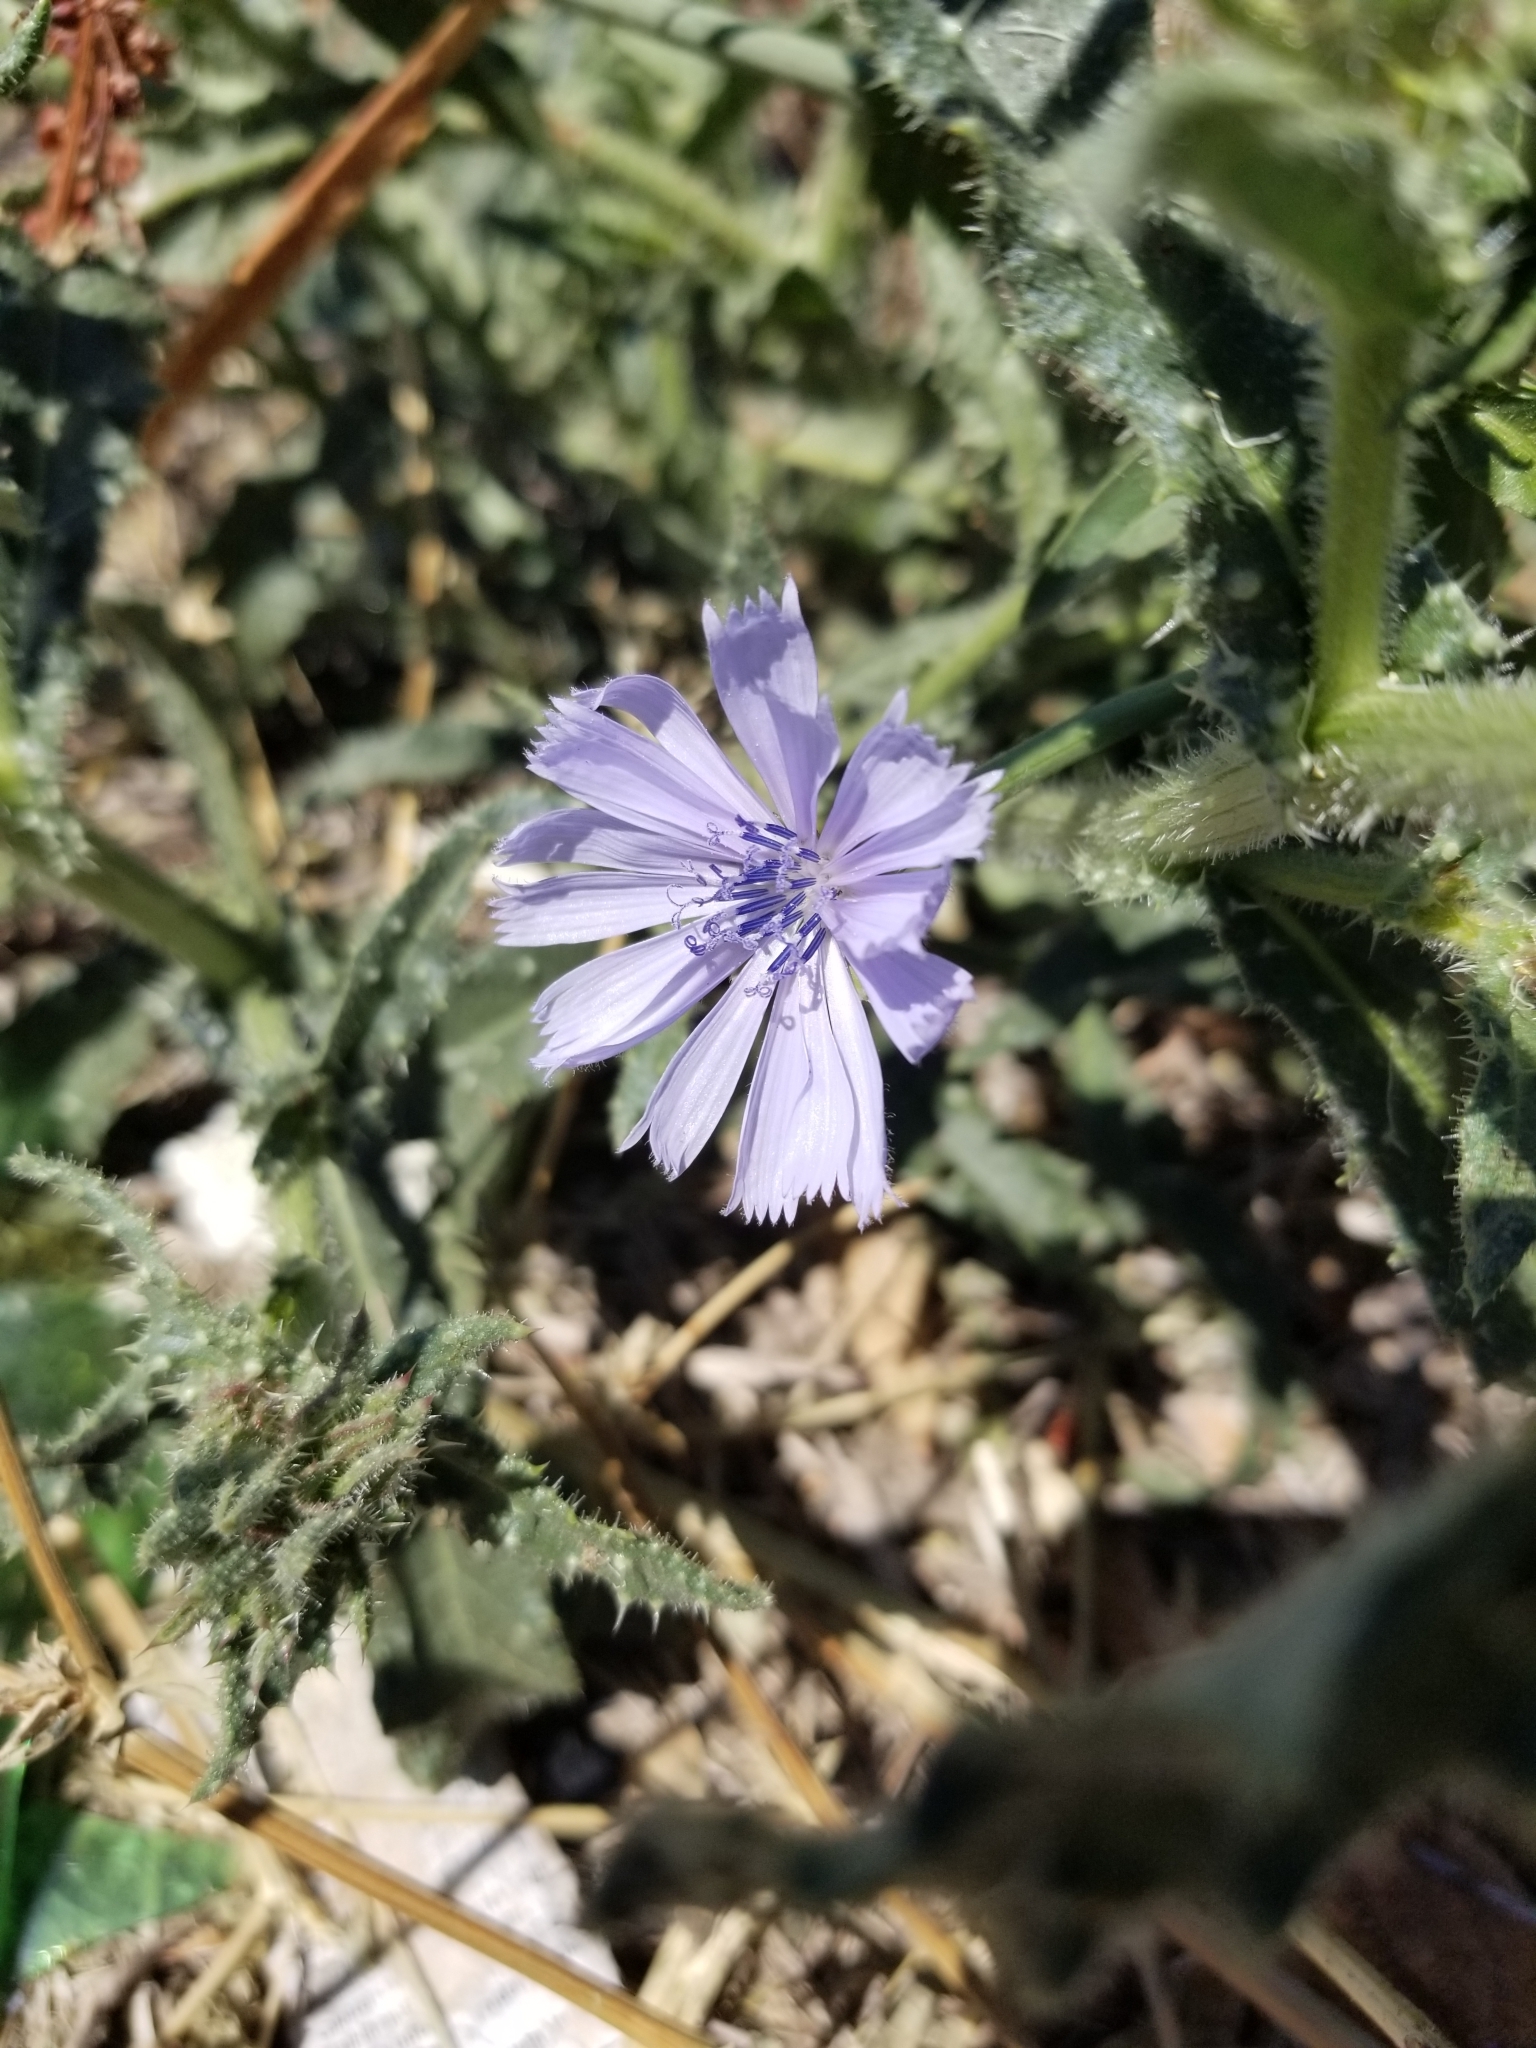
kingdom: Plantae
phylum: Tracheophyta
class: Magnoliopsida
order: Asterales
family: Asteraceae
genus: Cichorium
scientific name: Cichorium intybus
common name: Chicory
